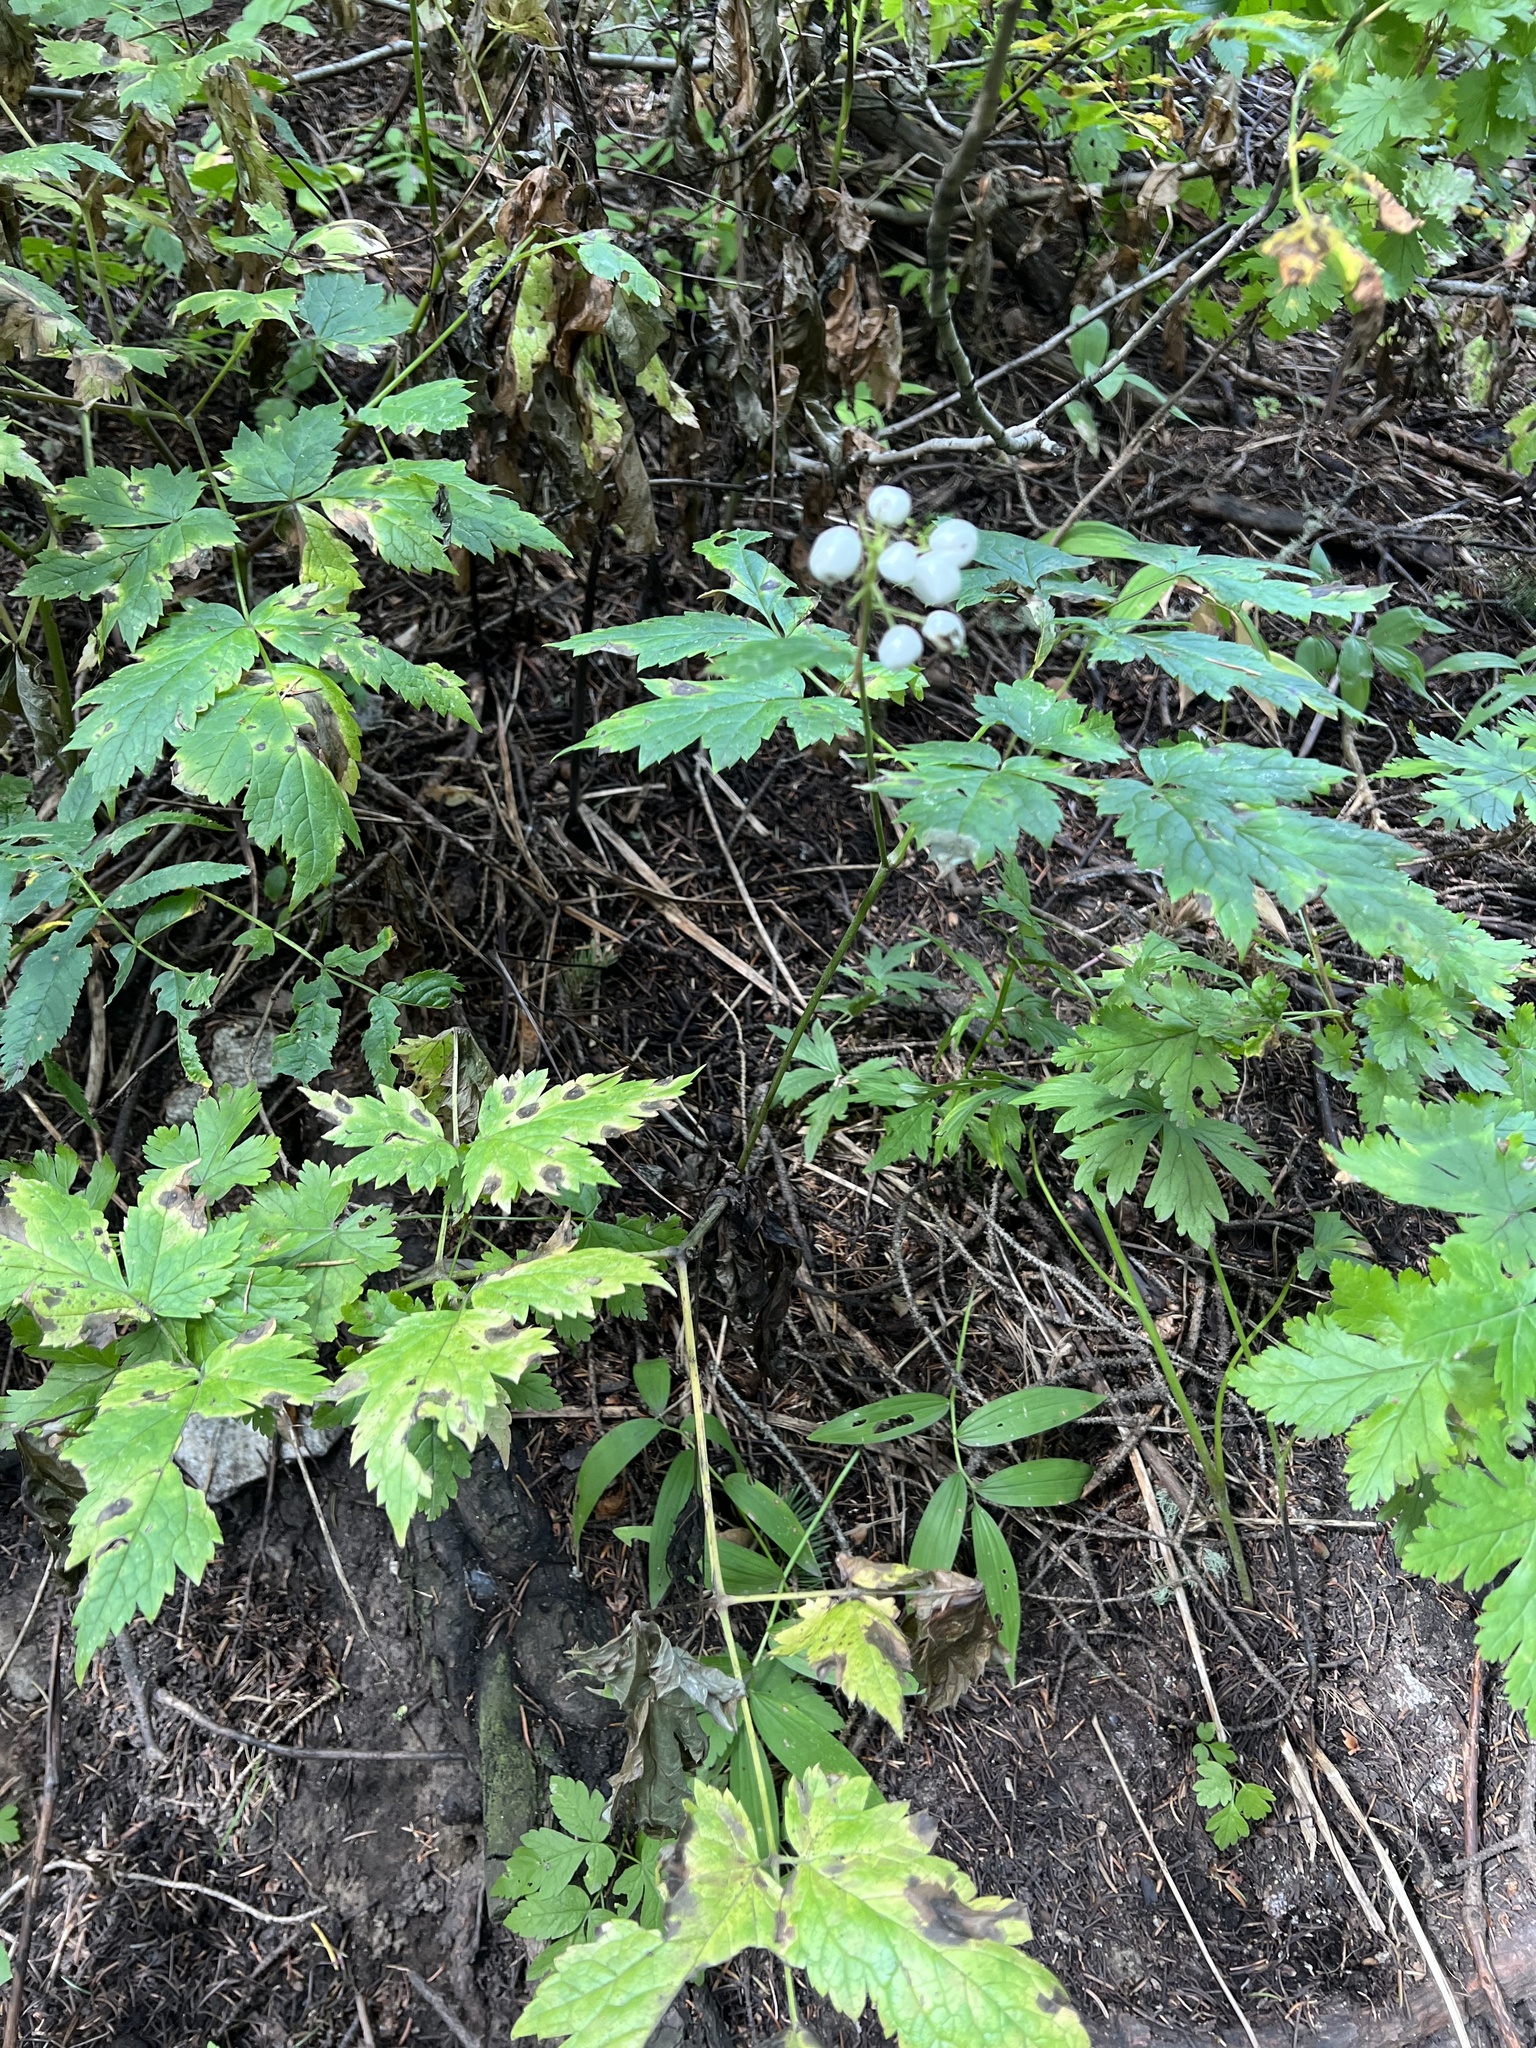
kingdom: Plantae
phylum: Tracheophyta
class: Magnoliopsida
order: Ranunculales
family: Ranunculaceae
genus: Actaea
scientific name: Actaea rubra
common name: Red baneberry
